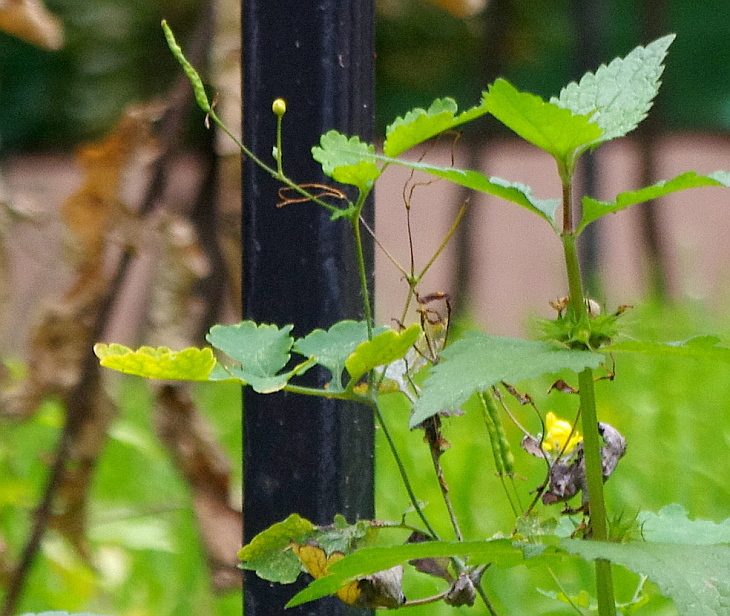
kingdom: Plantae
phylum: Tracheophyta
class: Magnoliopsida
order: Ranunculales
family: Papaveraceae
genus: Chelidonium
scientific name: Chelidonium majus
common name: Greater celandine
